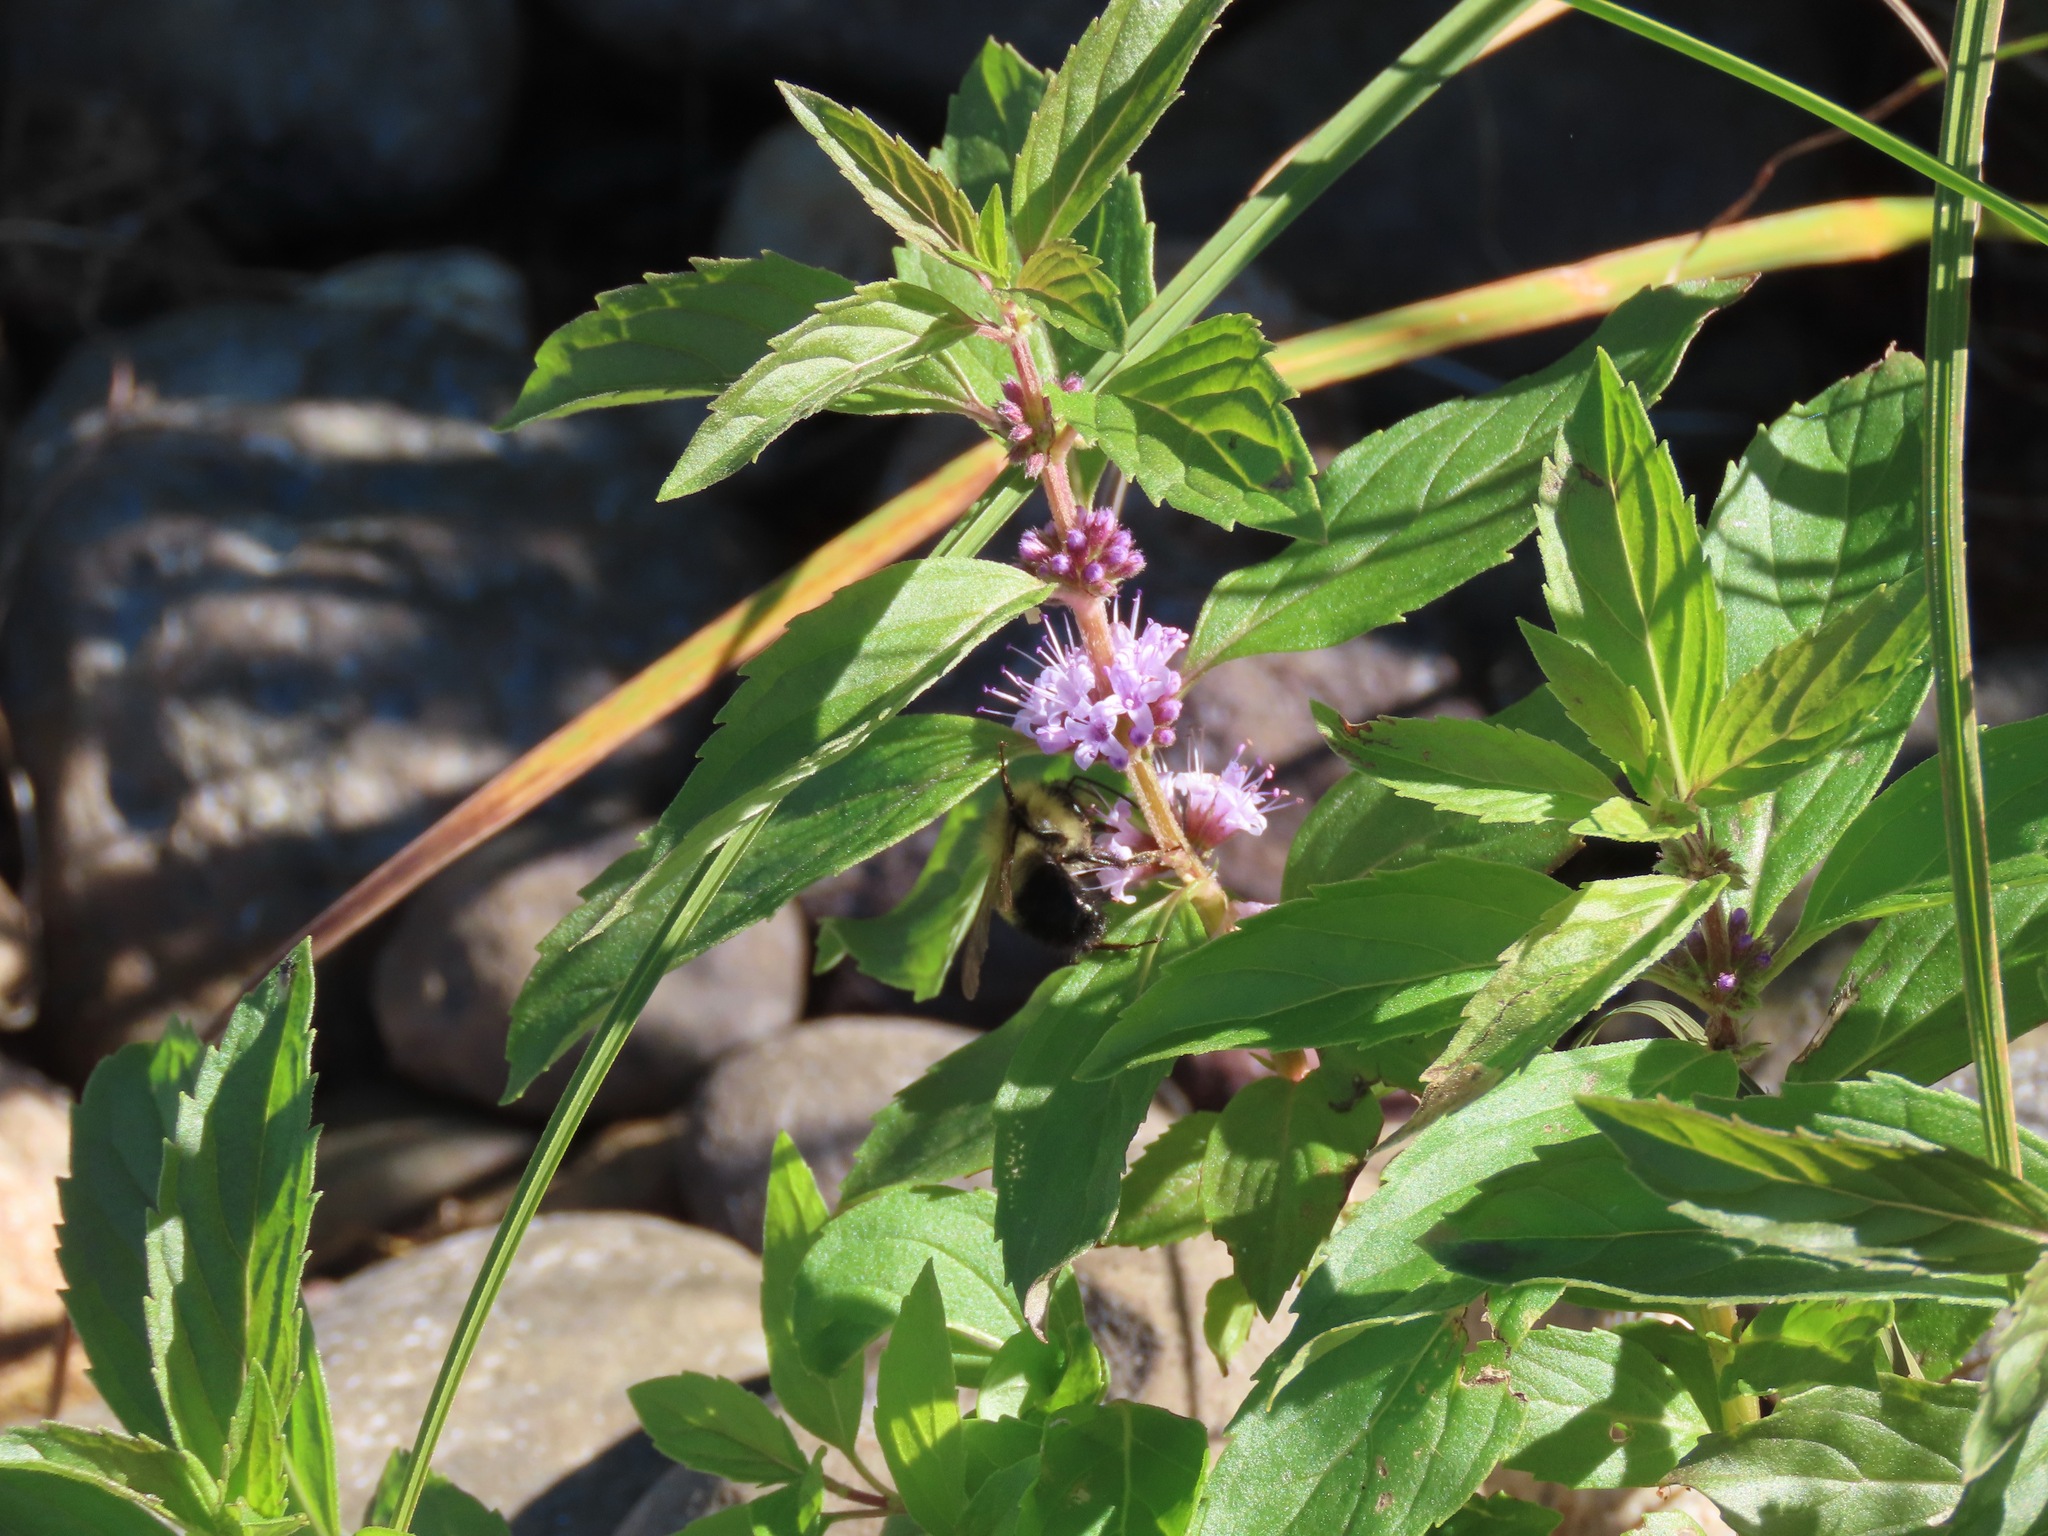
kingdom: Plantae
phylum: Tracheophyta
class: Magnoliopsida
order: Lamiales
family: Lamiaceae
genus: Mentha
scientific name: Mentha canadensis
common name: American corn mint
